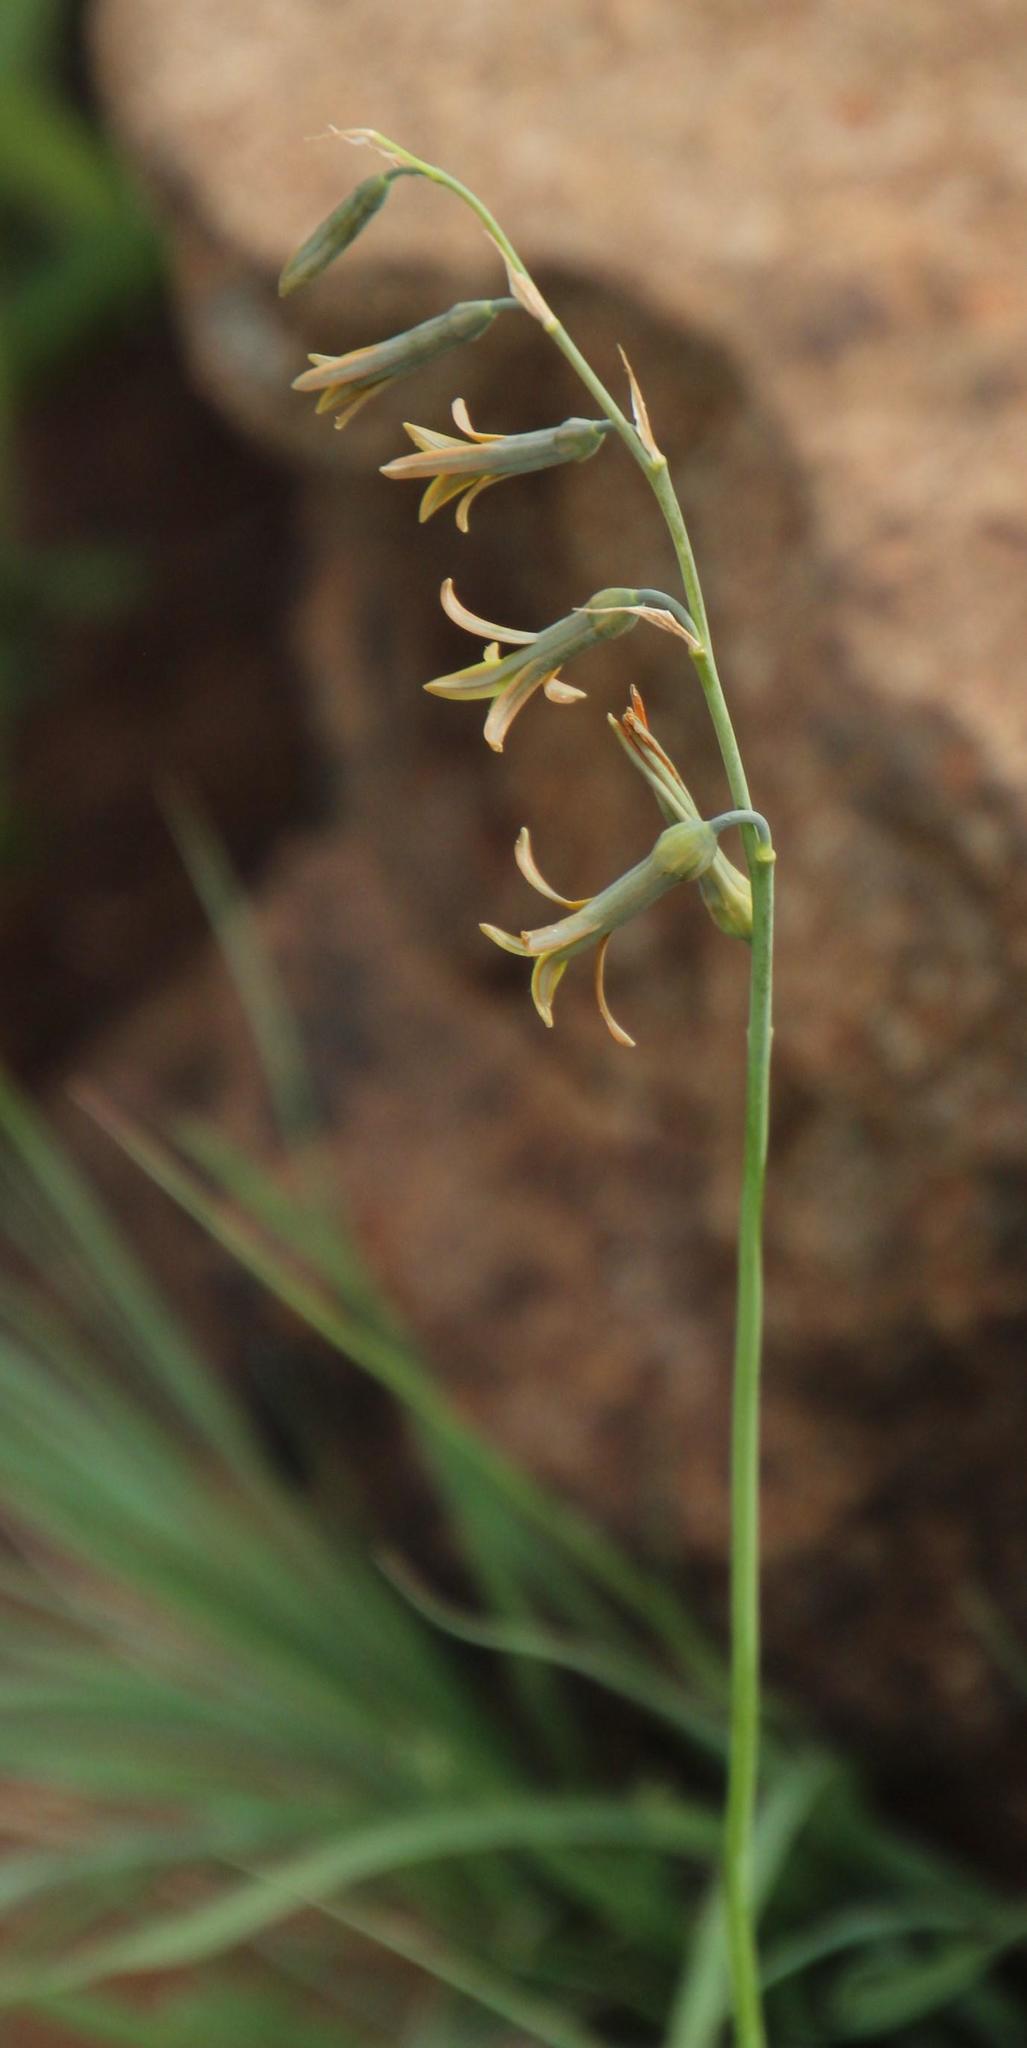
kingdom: Plantae
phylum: Tracheophyta
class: Liliopsida
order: Asparagales
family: Asparagaceae
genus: Dipcadi
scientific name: Dipcadi marlothii
